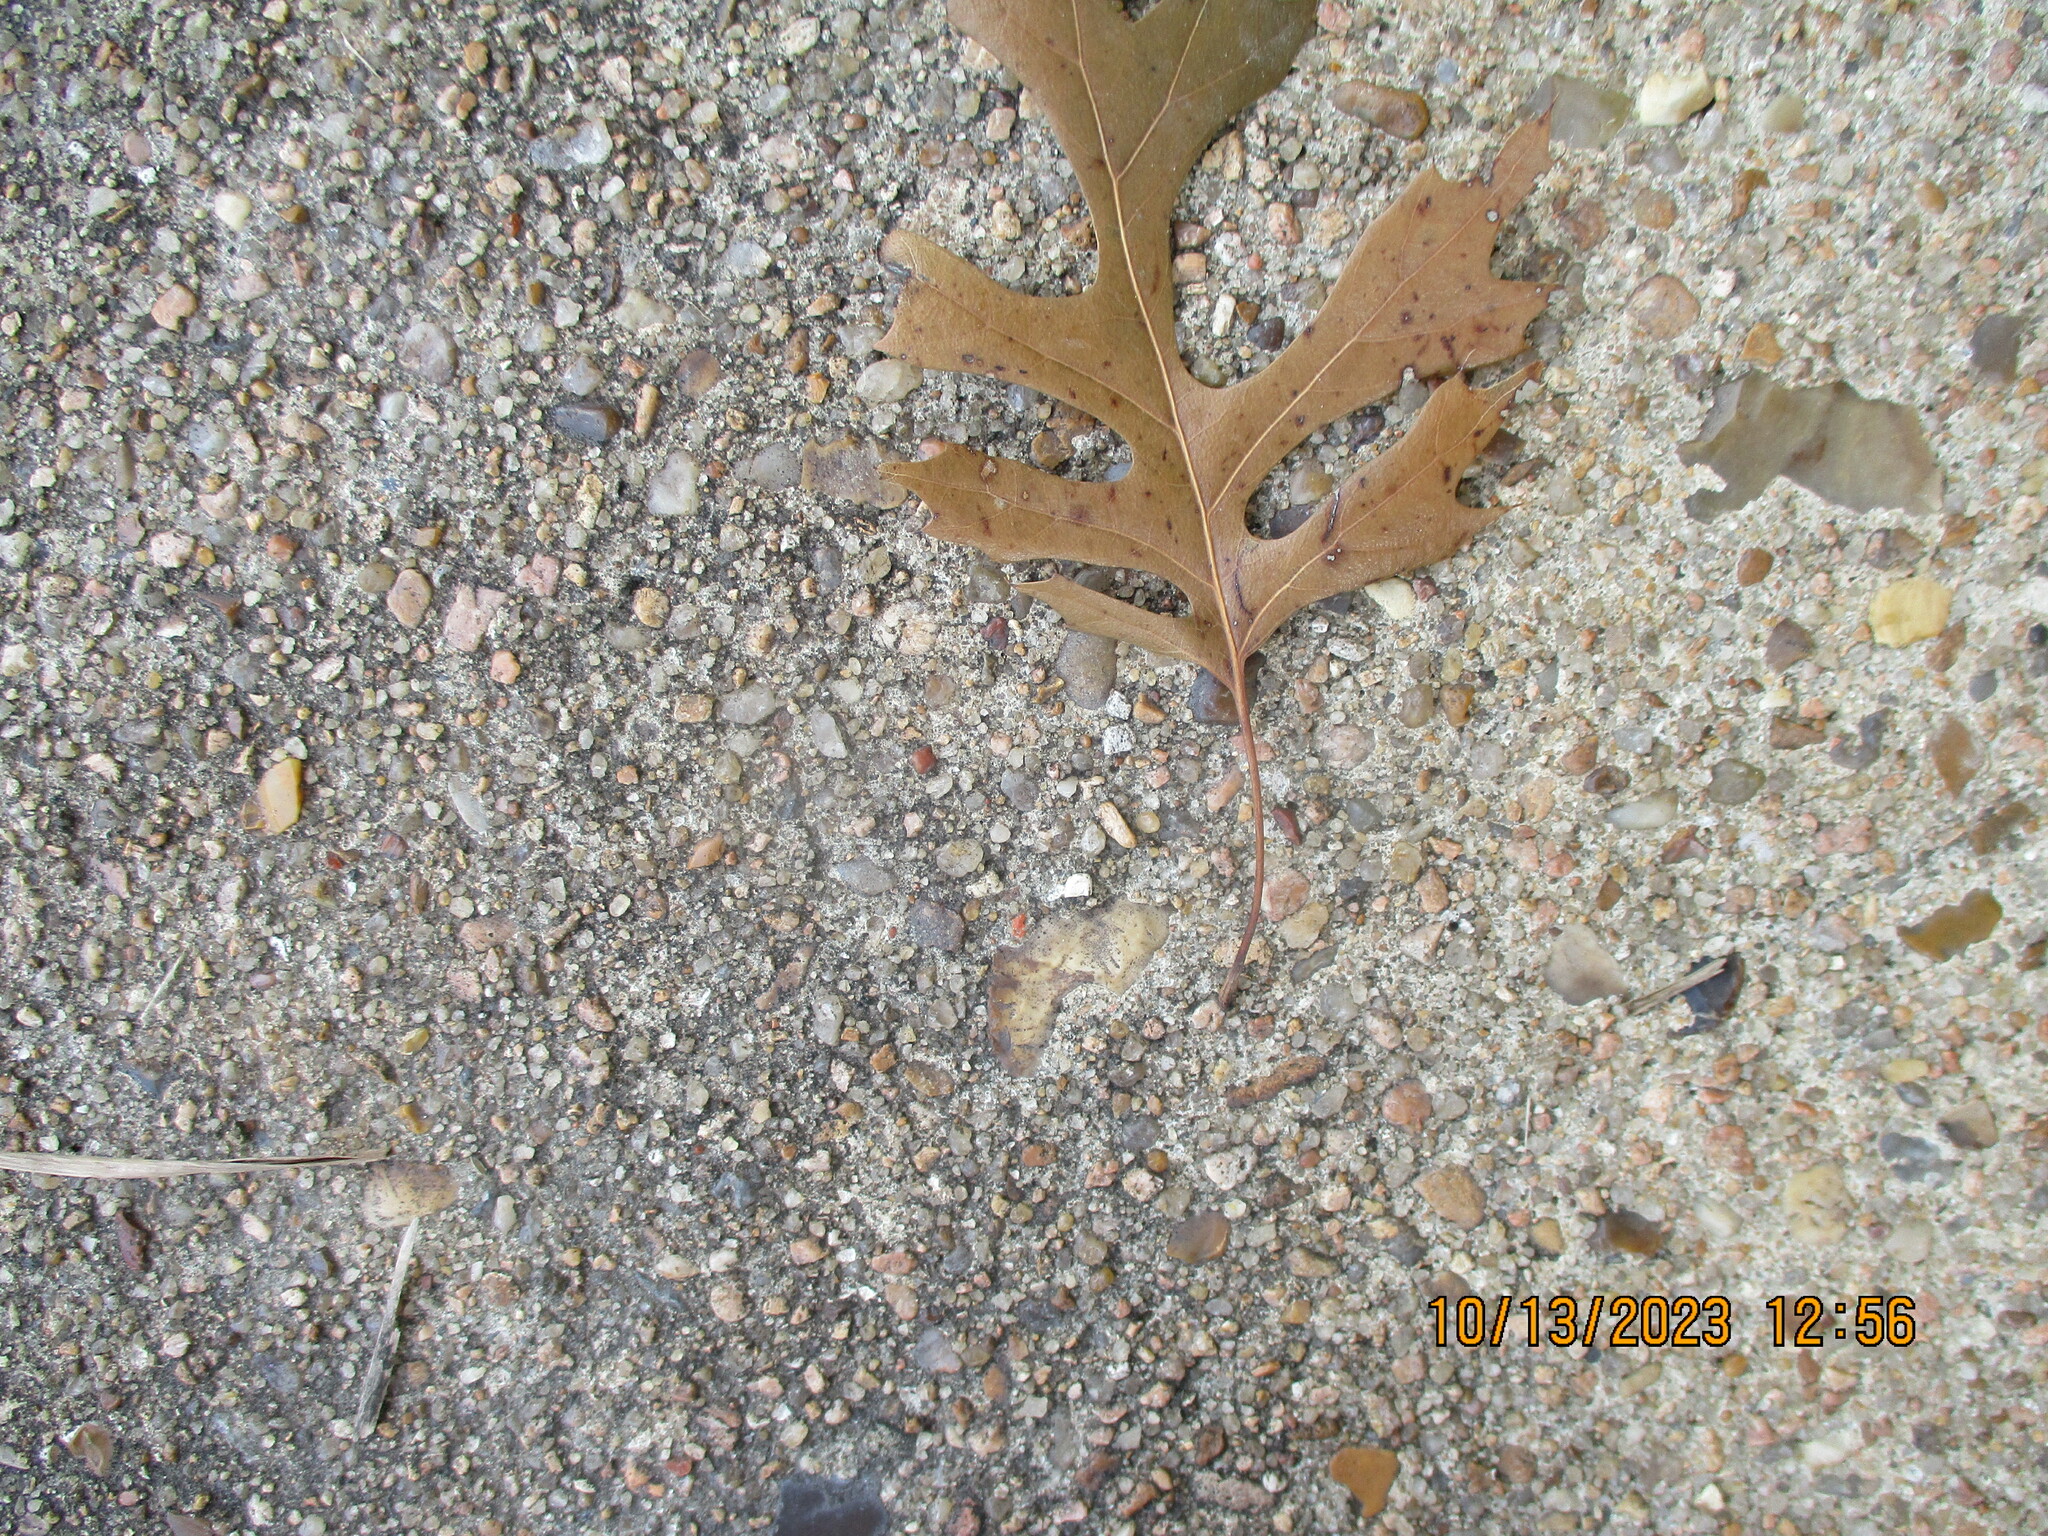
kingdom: Plantae
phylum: Tracheophyta
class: Magnoliopsida
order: Fagales
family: Fagaceae
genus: Quercus
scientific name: Quercus shumardii
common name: Shumard oak
